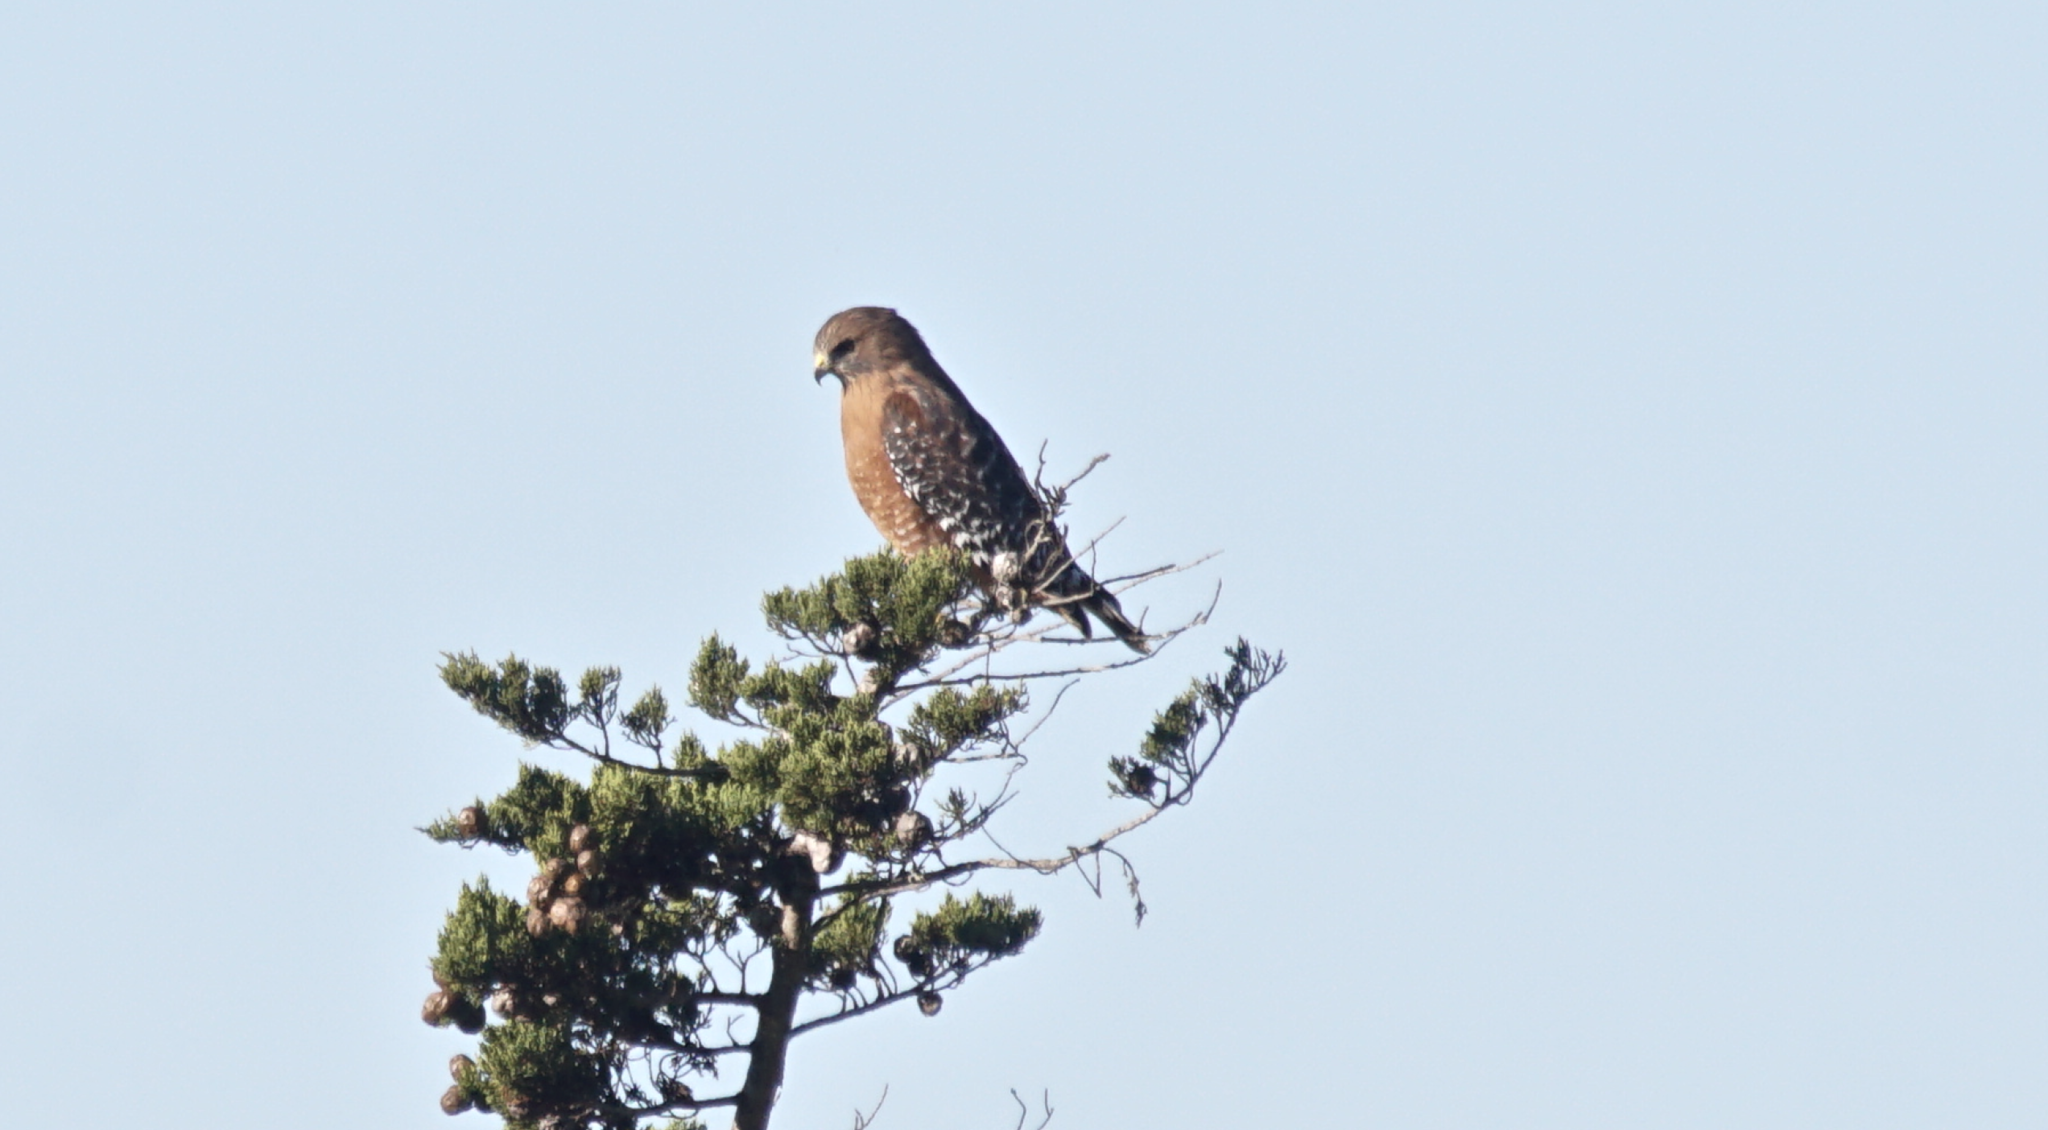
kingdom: Animalia
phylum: Chordata
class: Aves
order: Accipitriformes
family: Accipitridae
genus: Buteo
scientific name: Buteo lineatus
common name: Red-shouldered hawk
